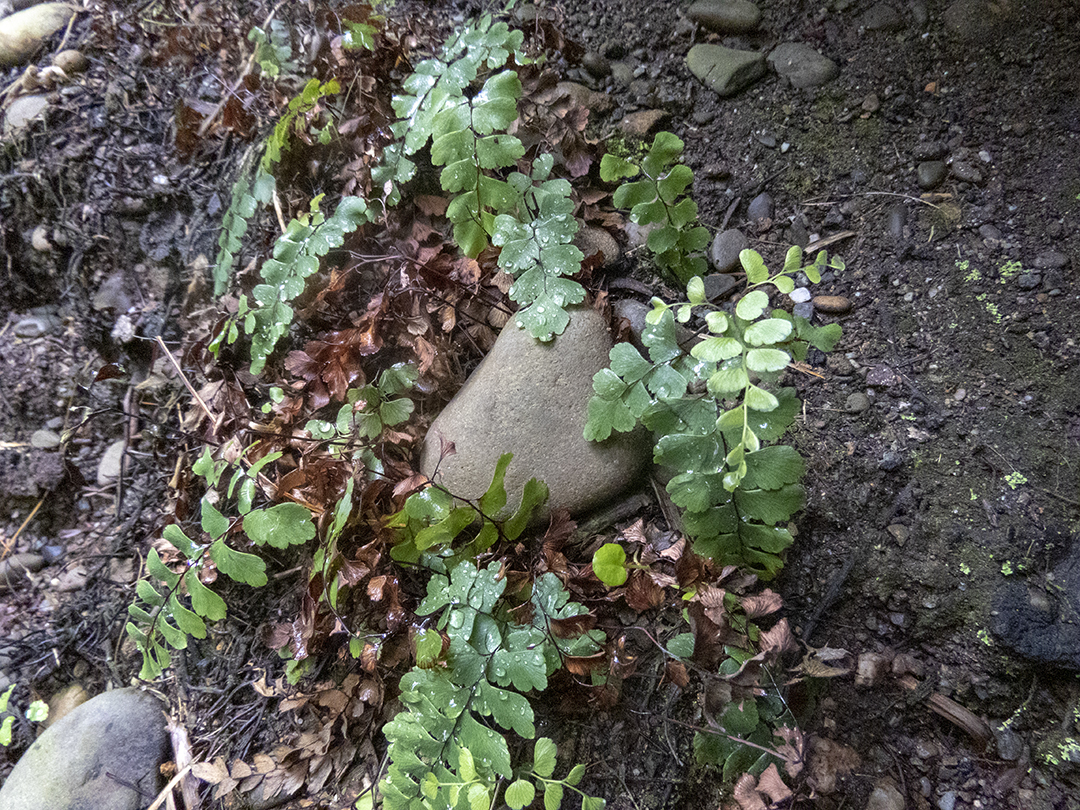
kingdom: Plantae
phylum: Tracheophyta
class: Polypodiopsida
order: Polypodiales
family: Pteridaceae
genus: Adiantum
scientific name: Adiantum cunninghamii
